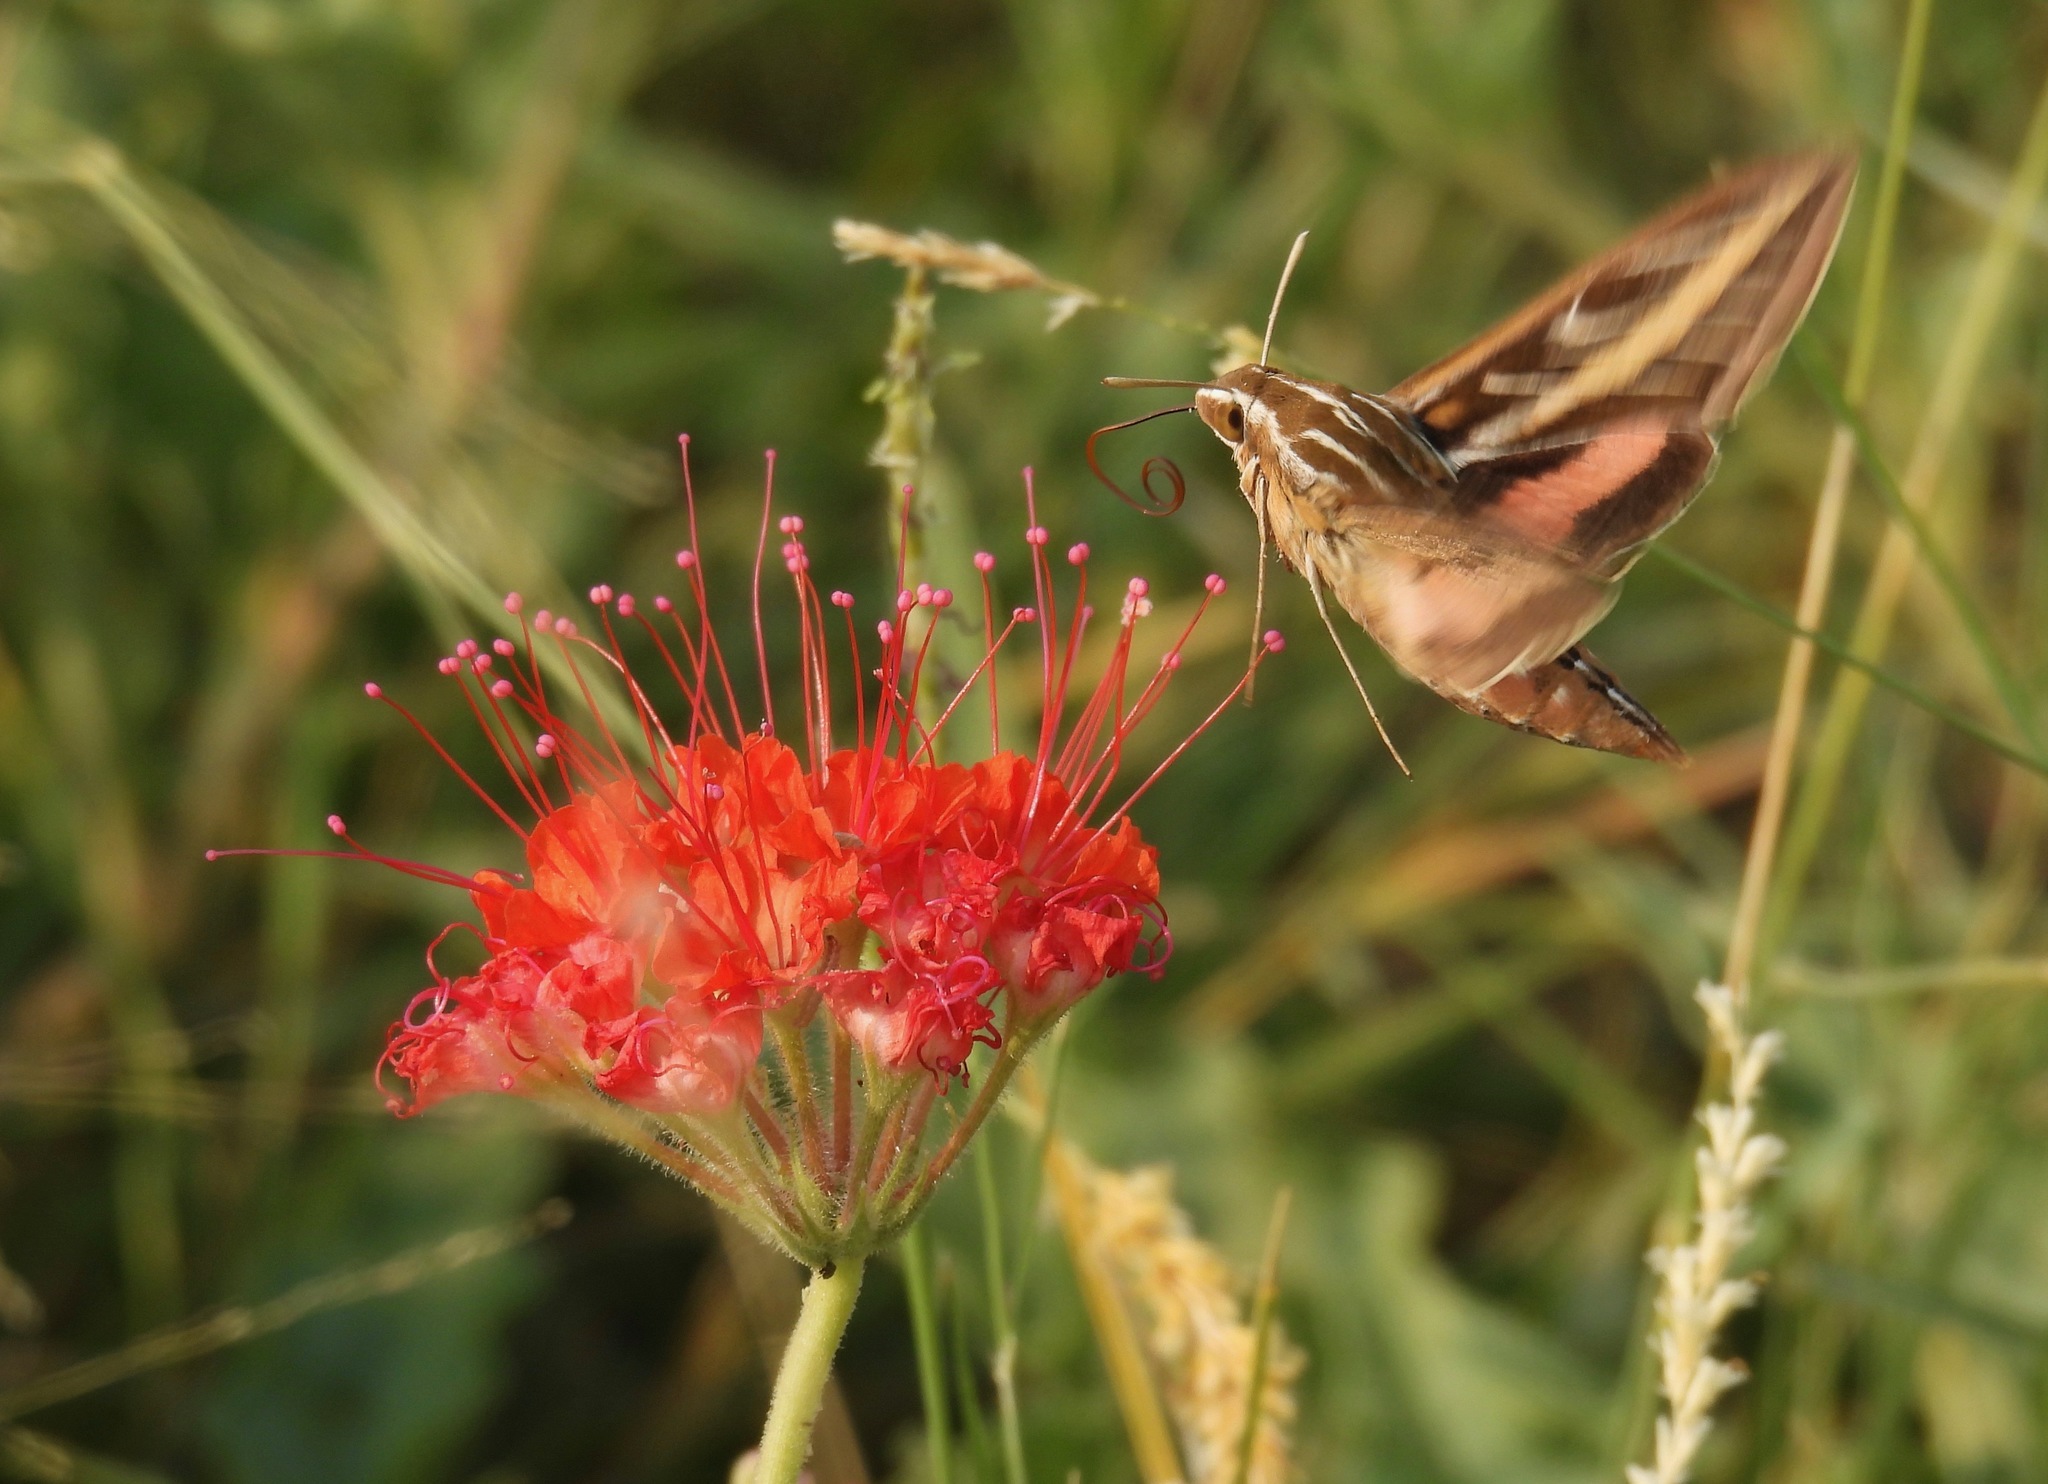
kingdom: Animalia
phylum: Arthropoda
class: Insecta
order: Lepidoptera
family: Sphingidae
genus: Hyles
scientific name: Hyles lineata
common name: White-lined sphinx
